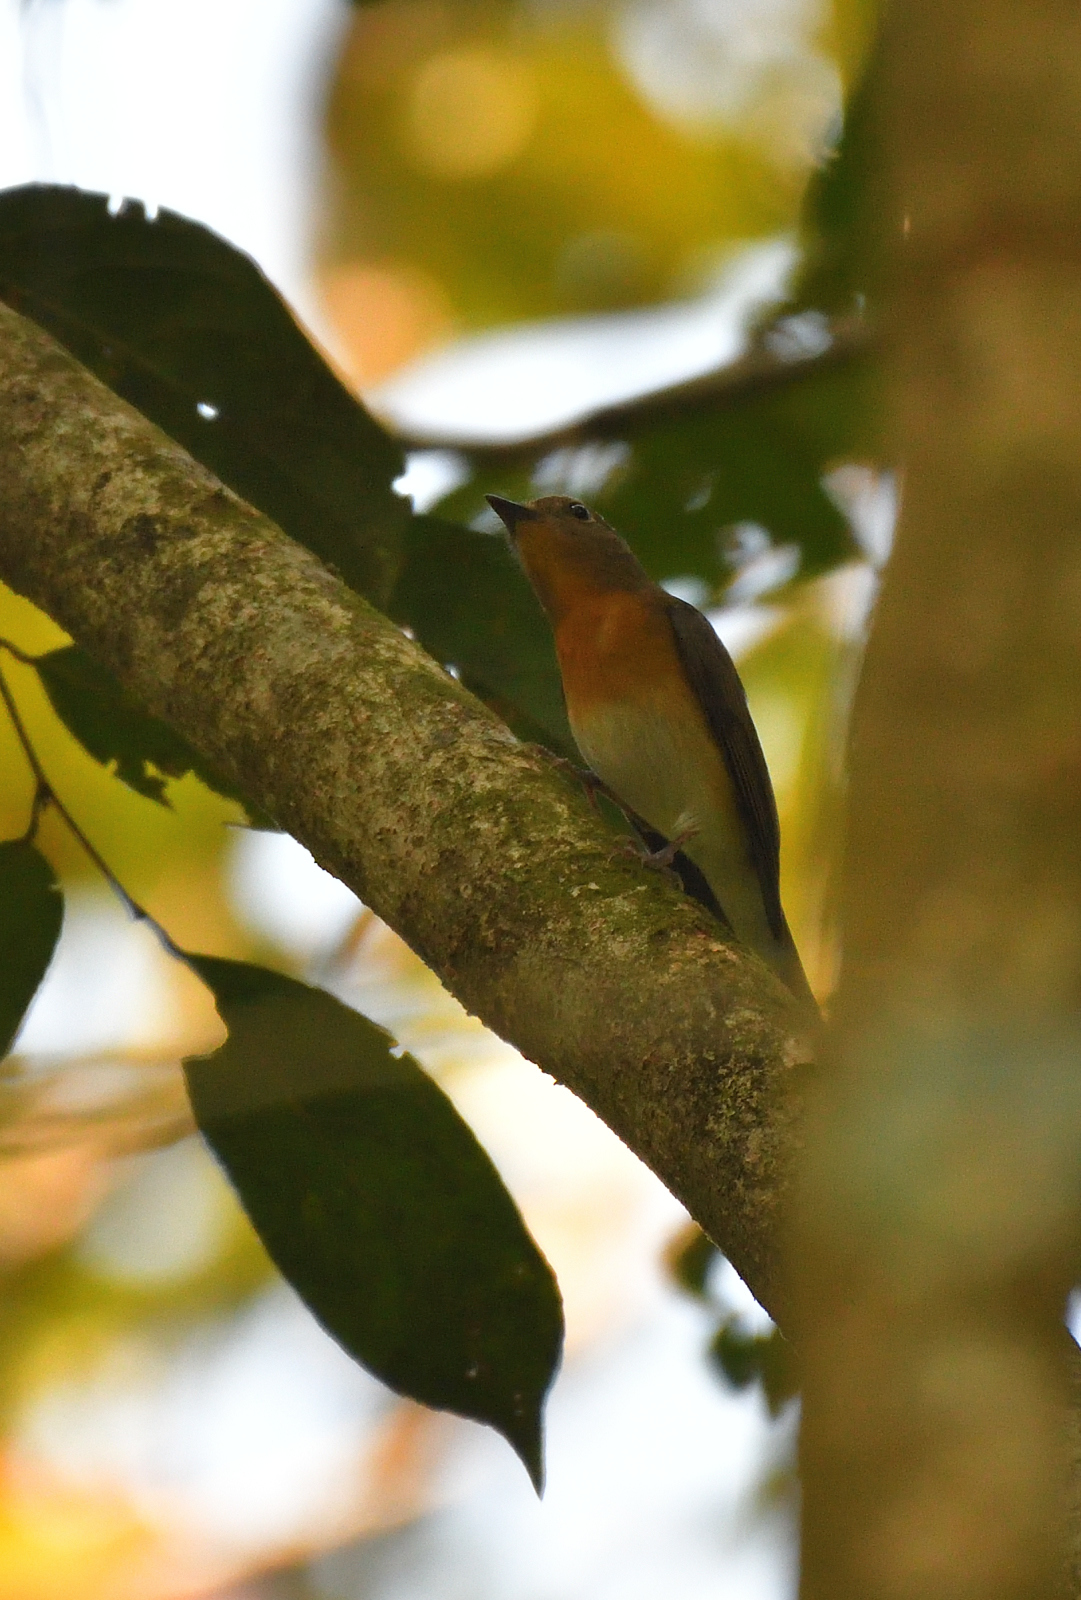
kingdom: Animalia
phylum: Chordata
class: Aves
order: Passeriformes
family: Muscicapidae
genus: Cyornis
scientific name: Cyornis rubeculoides
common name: Blue-throated blue flycatcher
